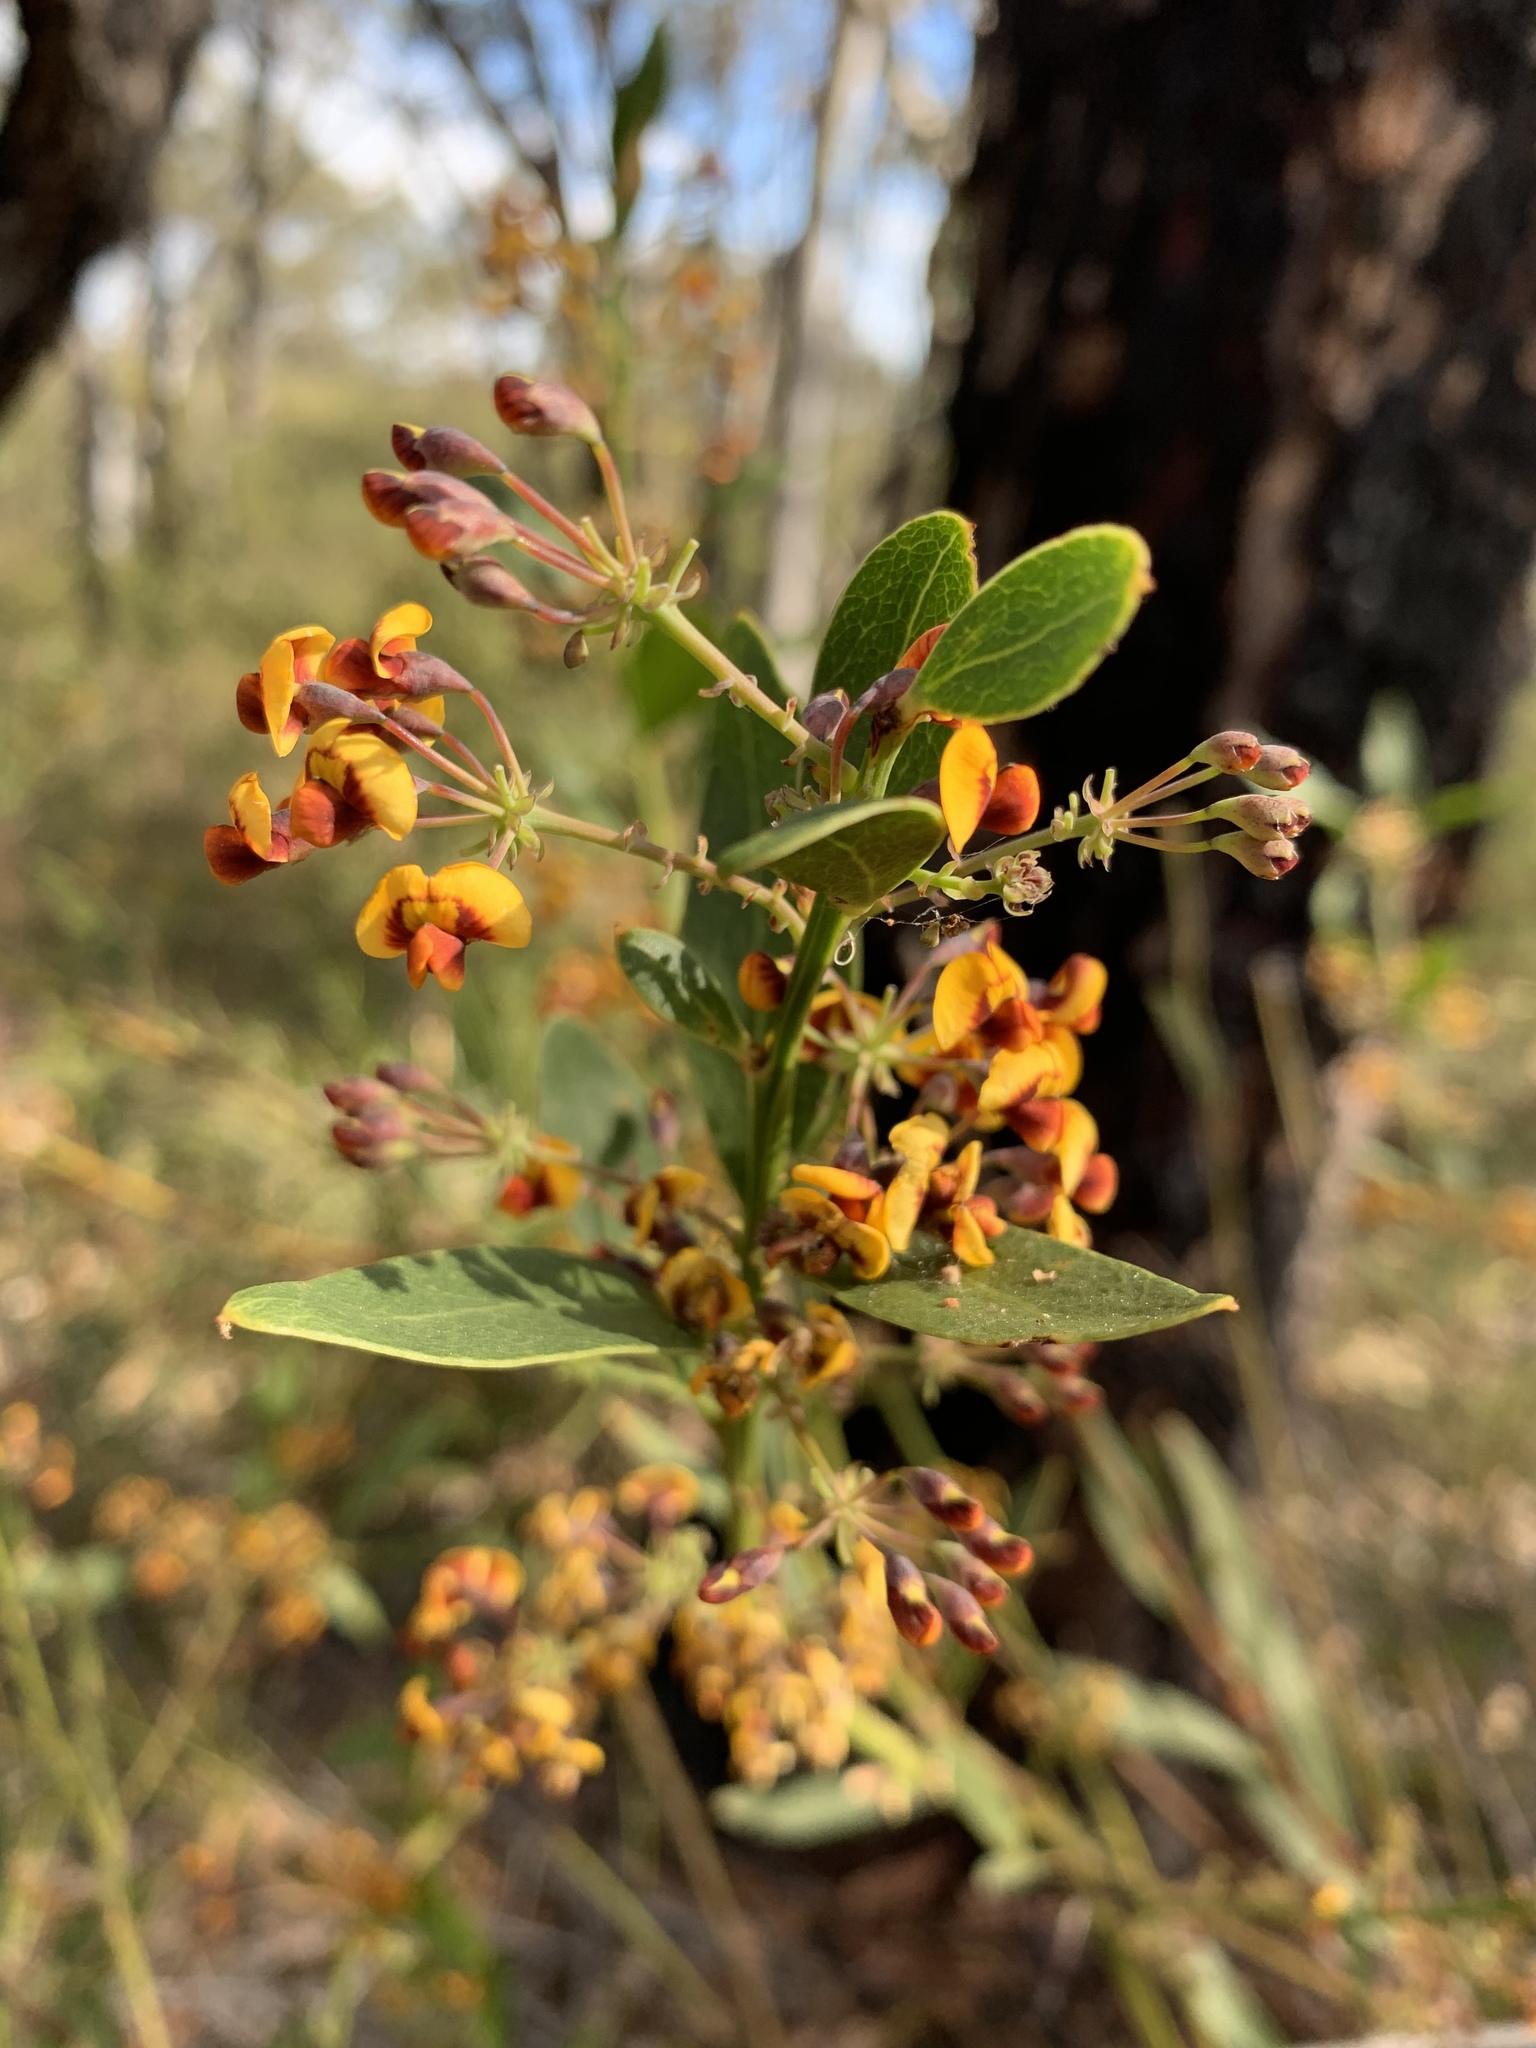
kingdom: Plantae
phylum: Tracheophyta
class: Magnoliopsida
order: Fabales
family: Fabaceae
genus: Daviesia
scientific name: Daviesia corymbosa
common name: Narrow-leaf bitter-pea
